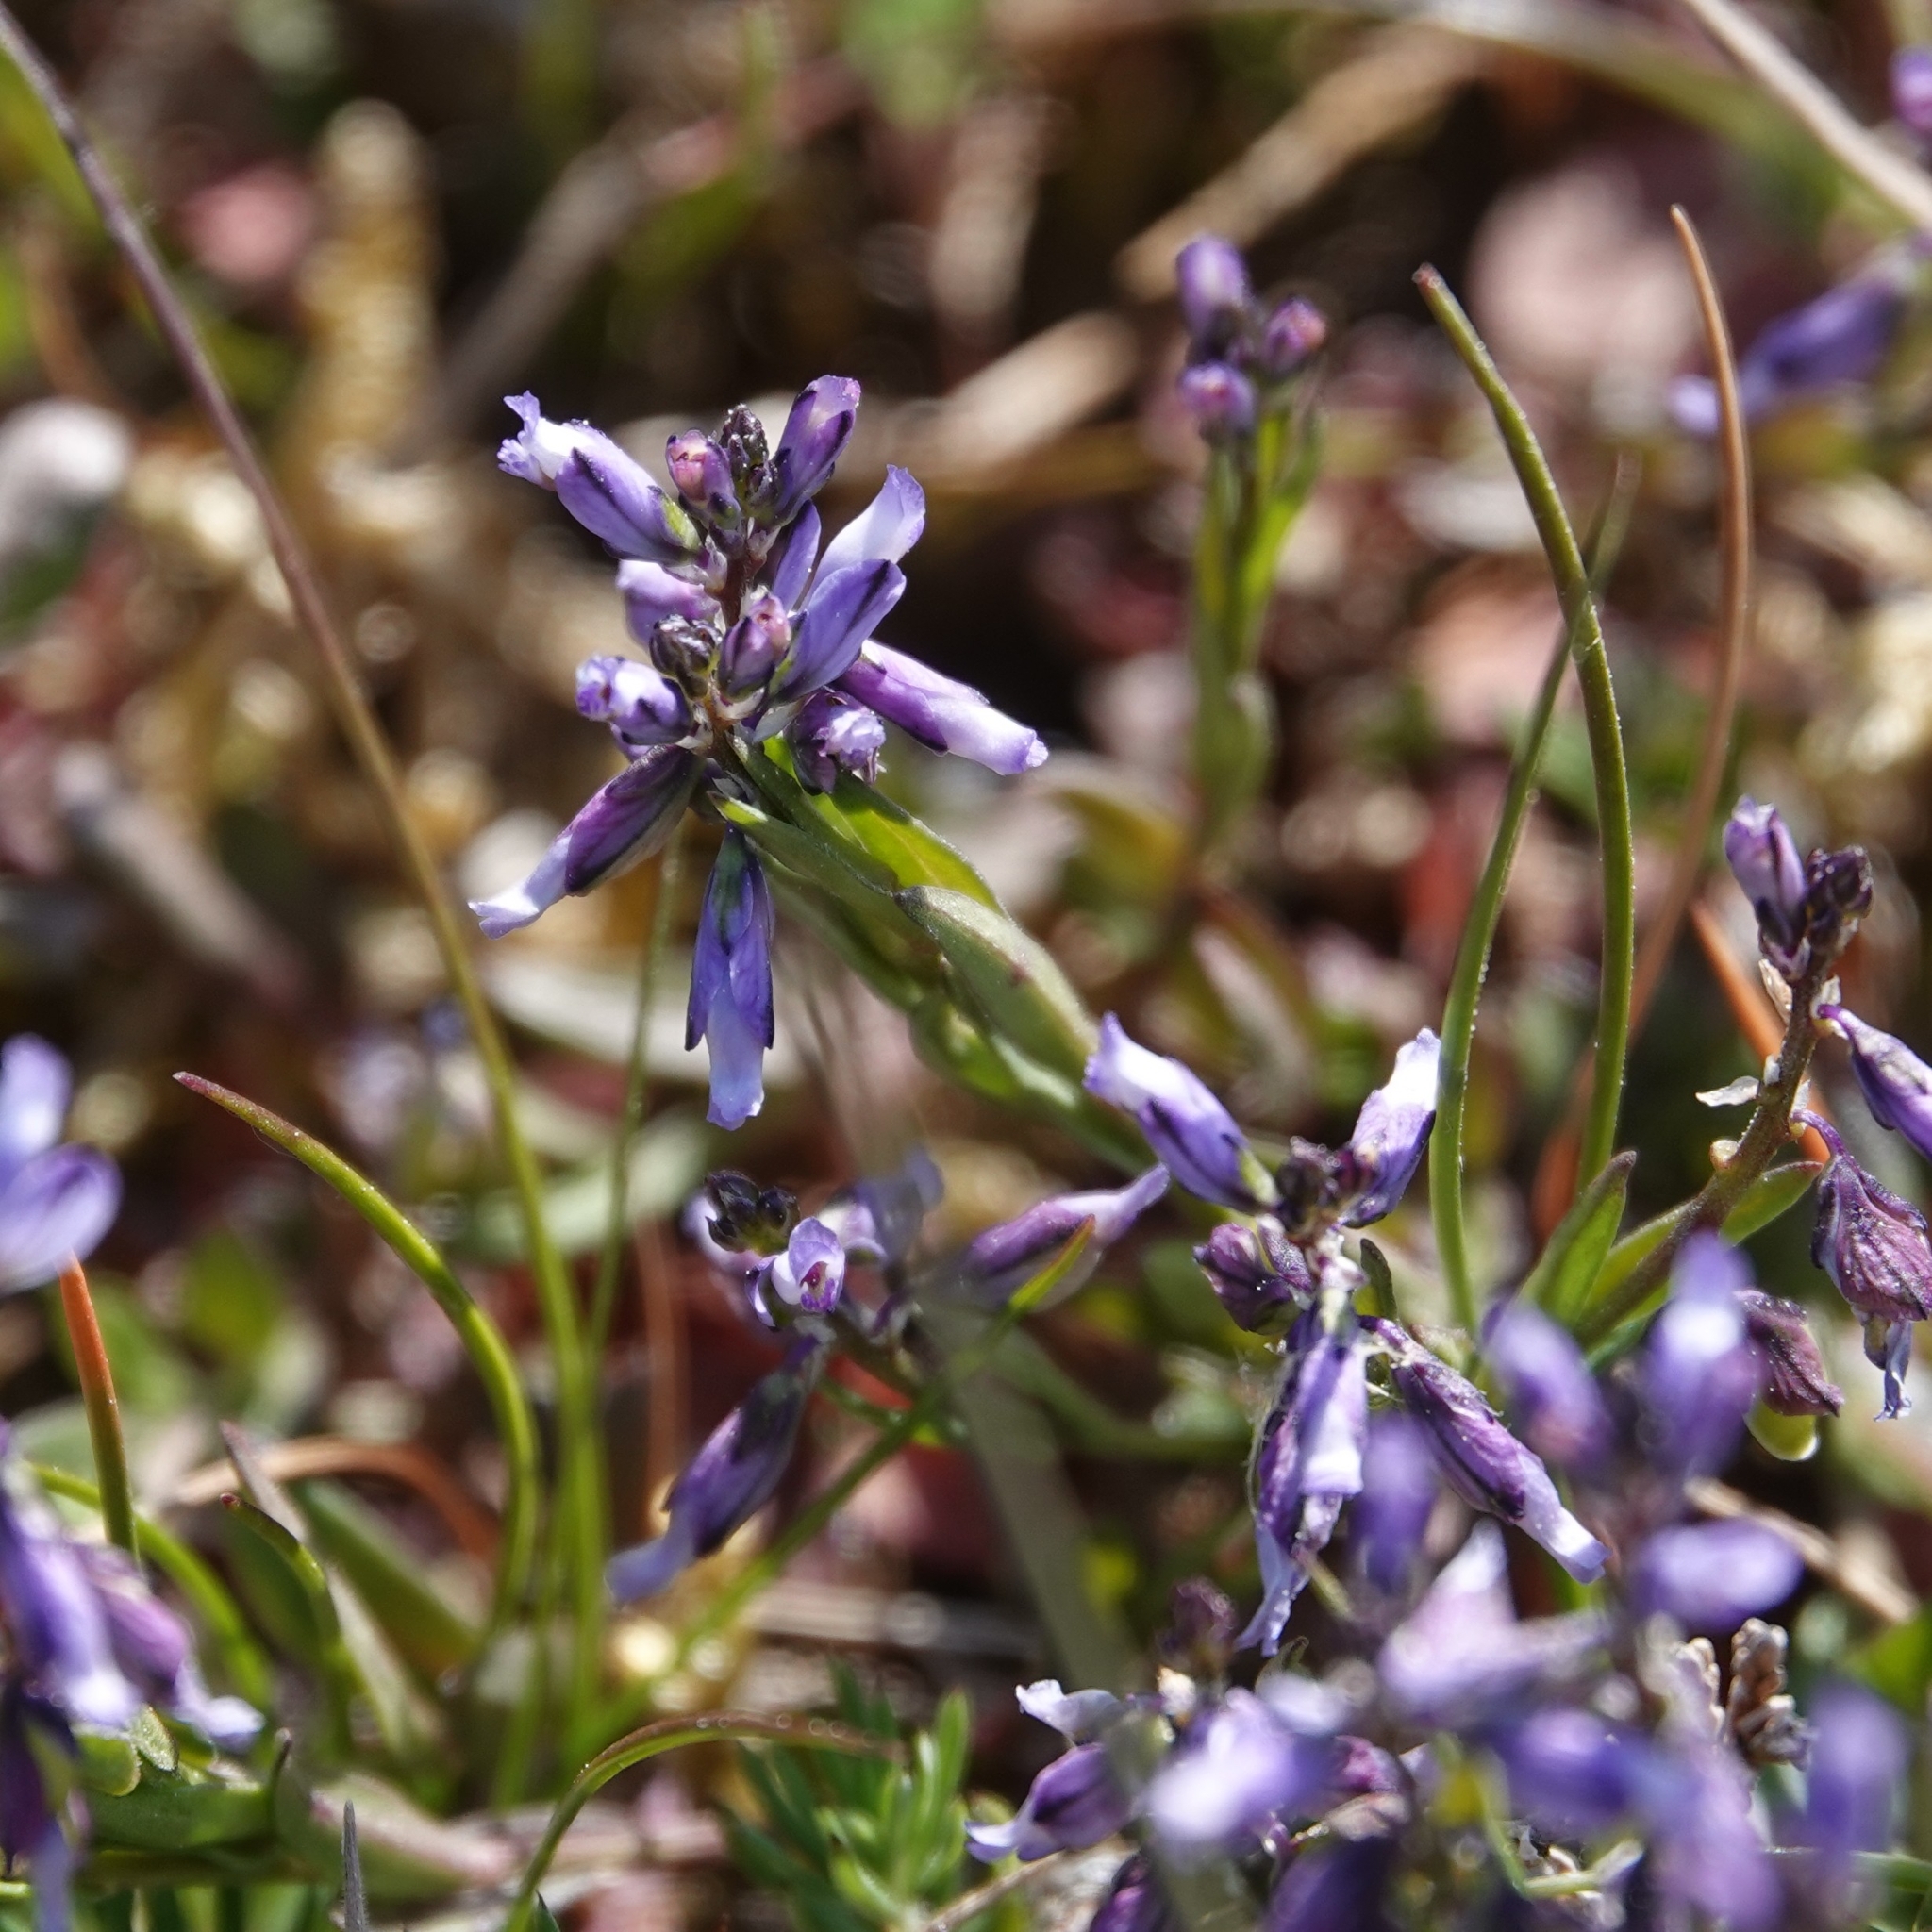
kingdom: Plantae
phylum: Tracheophyta
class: Magnoliopsida
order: Fabales
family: Polygalaceae
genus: Polygala
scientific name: Polygala vulgaris
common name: Common milkwort
